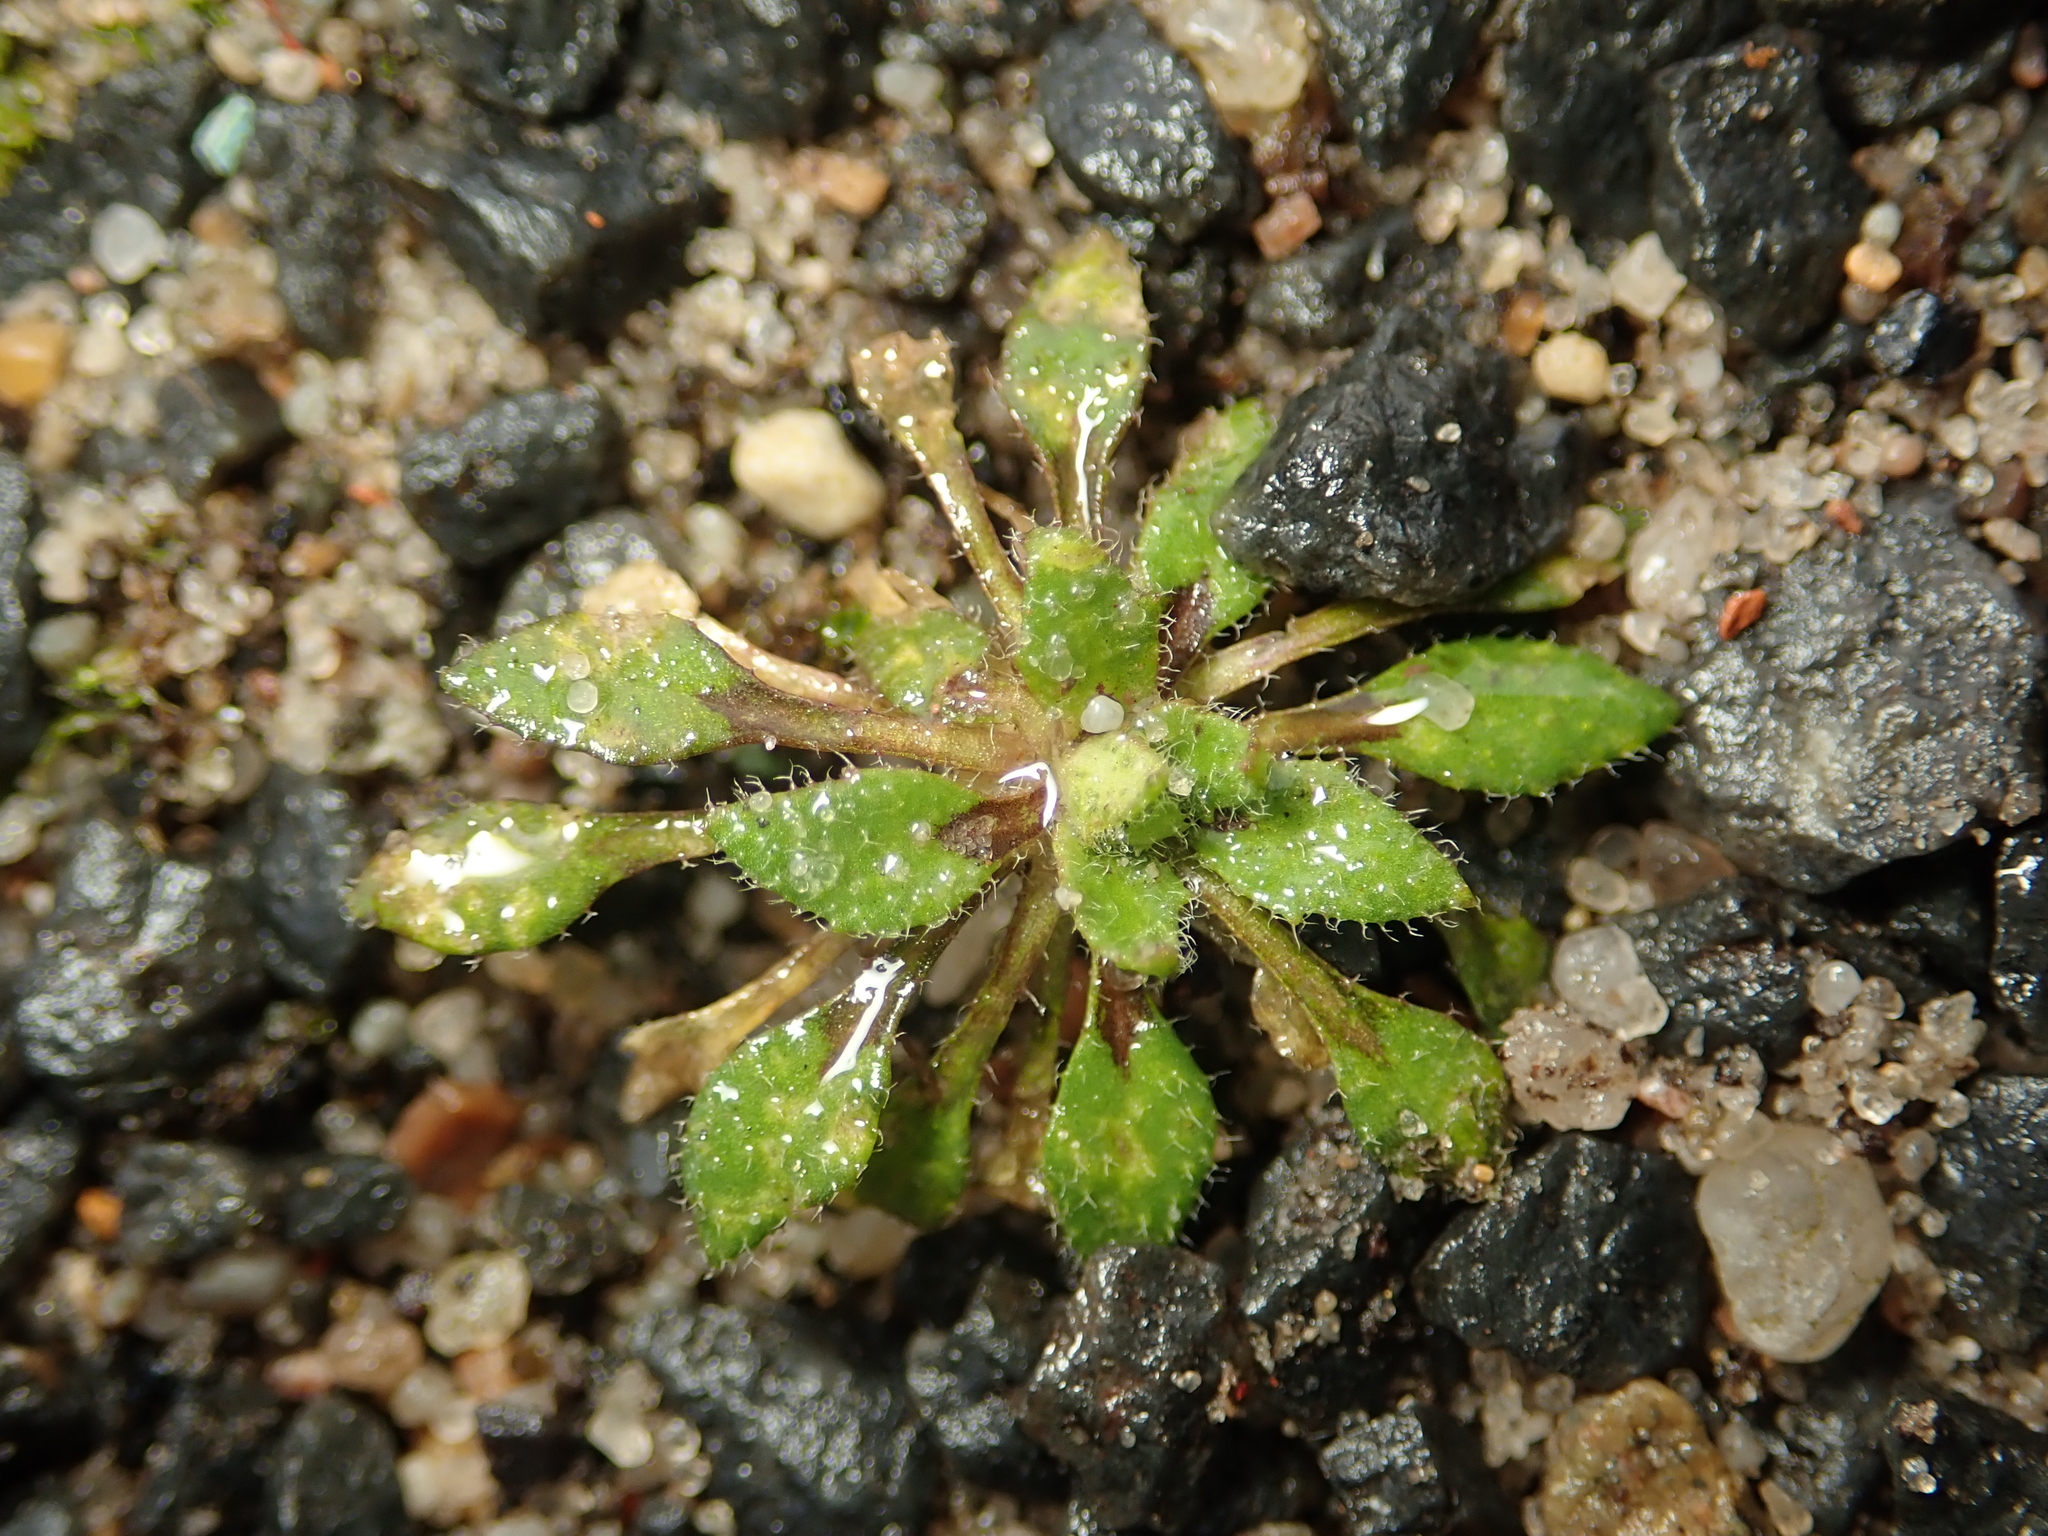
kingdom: Plantae
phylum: Tracheophyta
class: Magnoliopsida
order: Brassicales
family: Brassicaceae
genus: Draba
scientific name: Draba verna
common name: Spring draba
